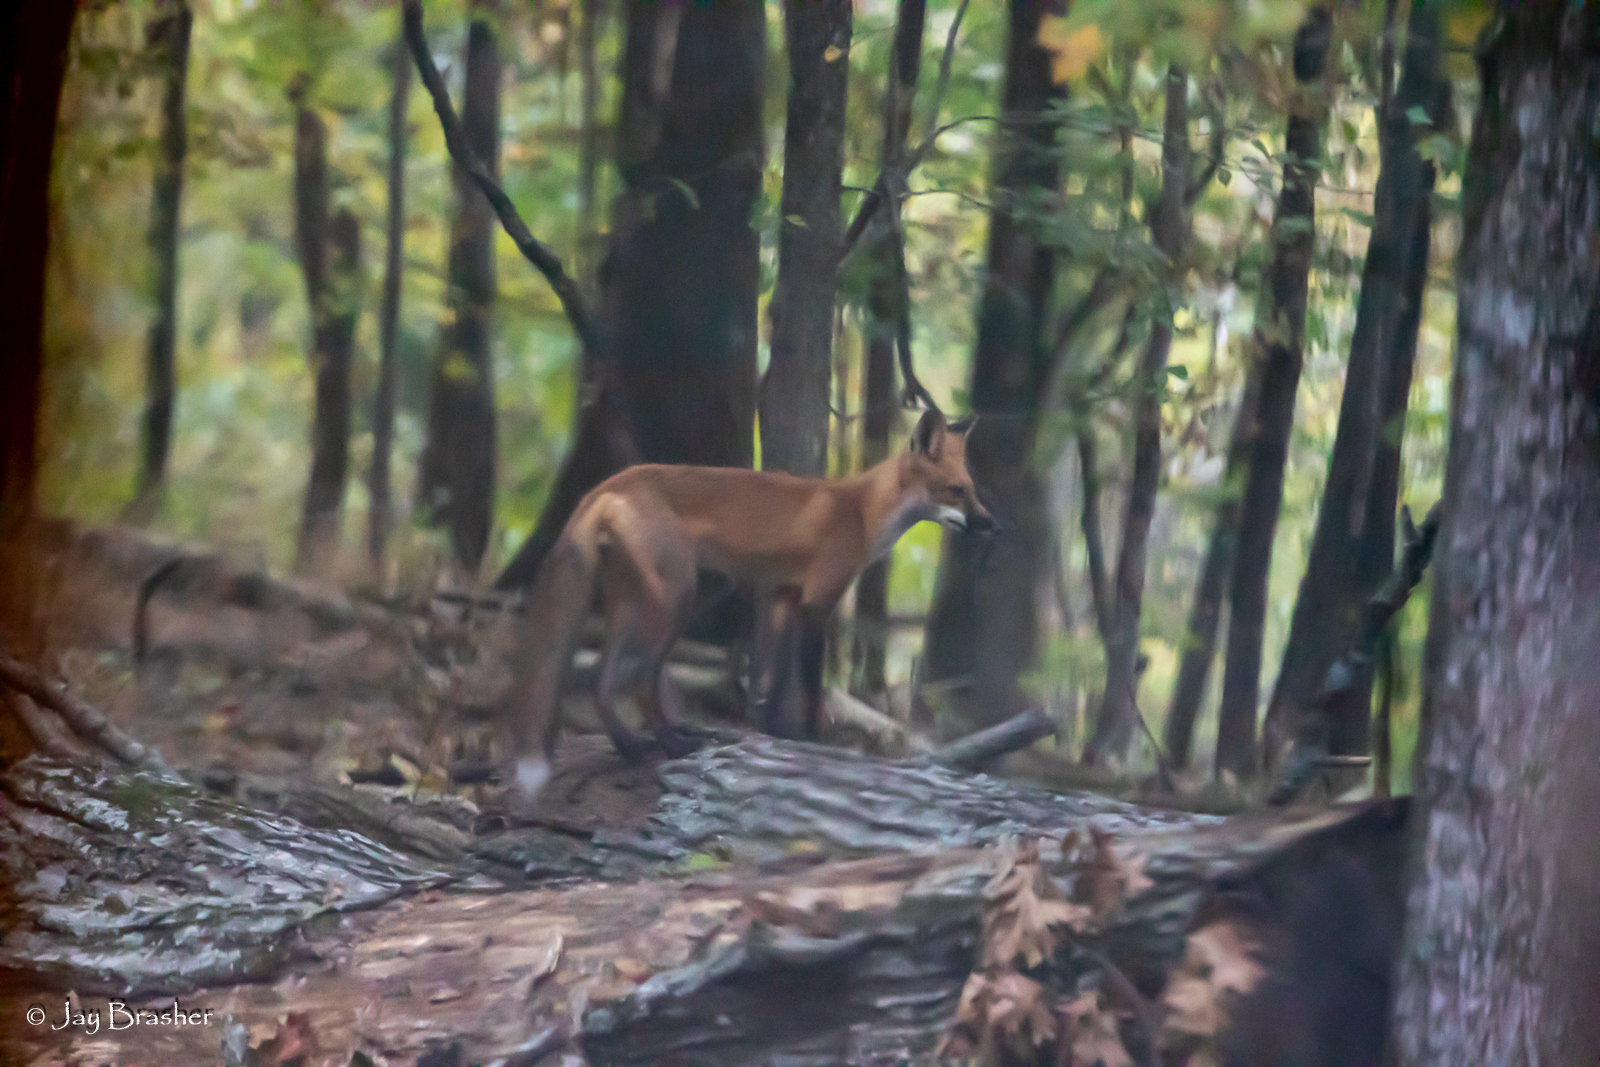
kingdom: Animalia
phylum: Chordata
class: Mammalia
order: Carnivora
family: Canidae
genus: Vulpes
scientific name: Vulpes vulpes
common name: Red fox
